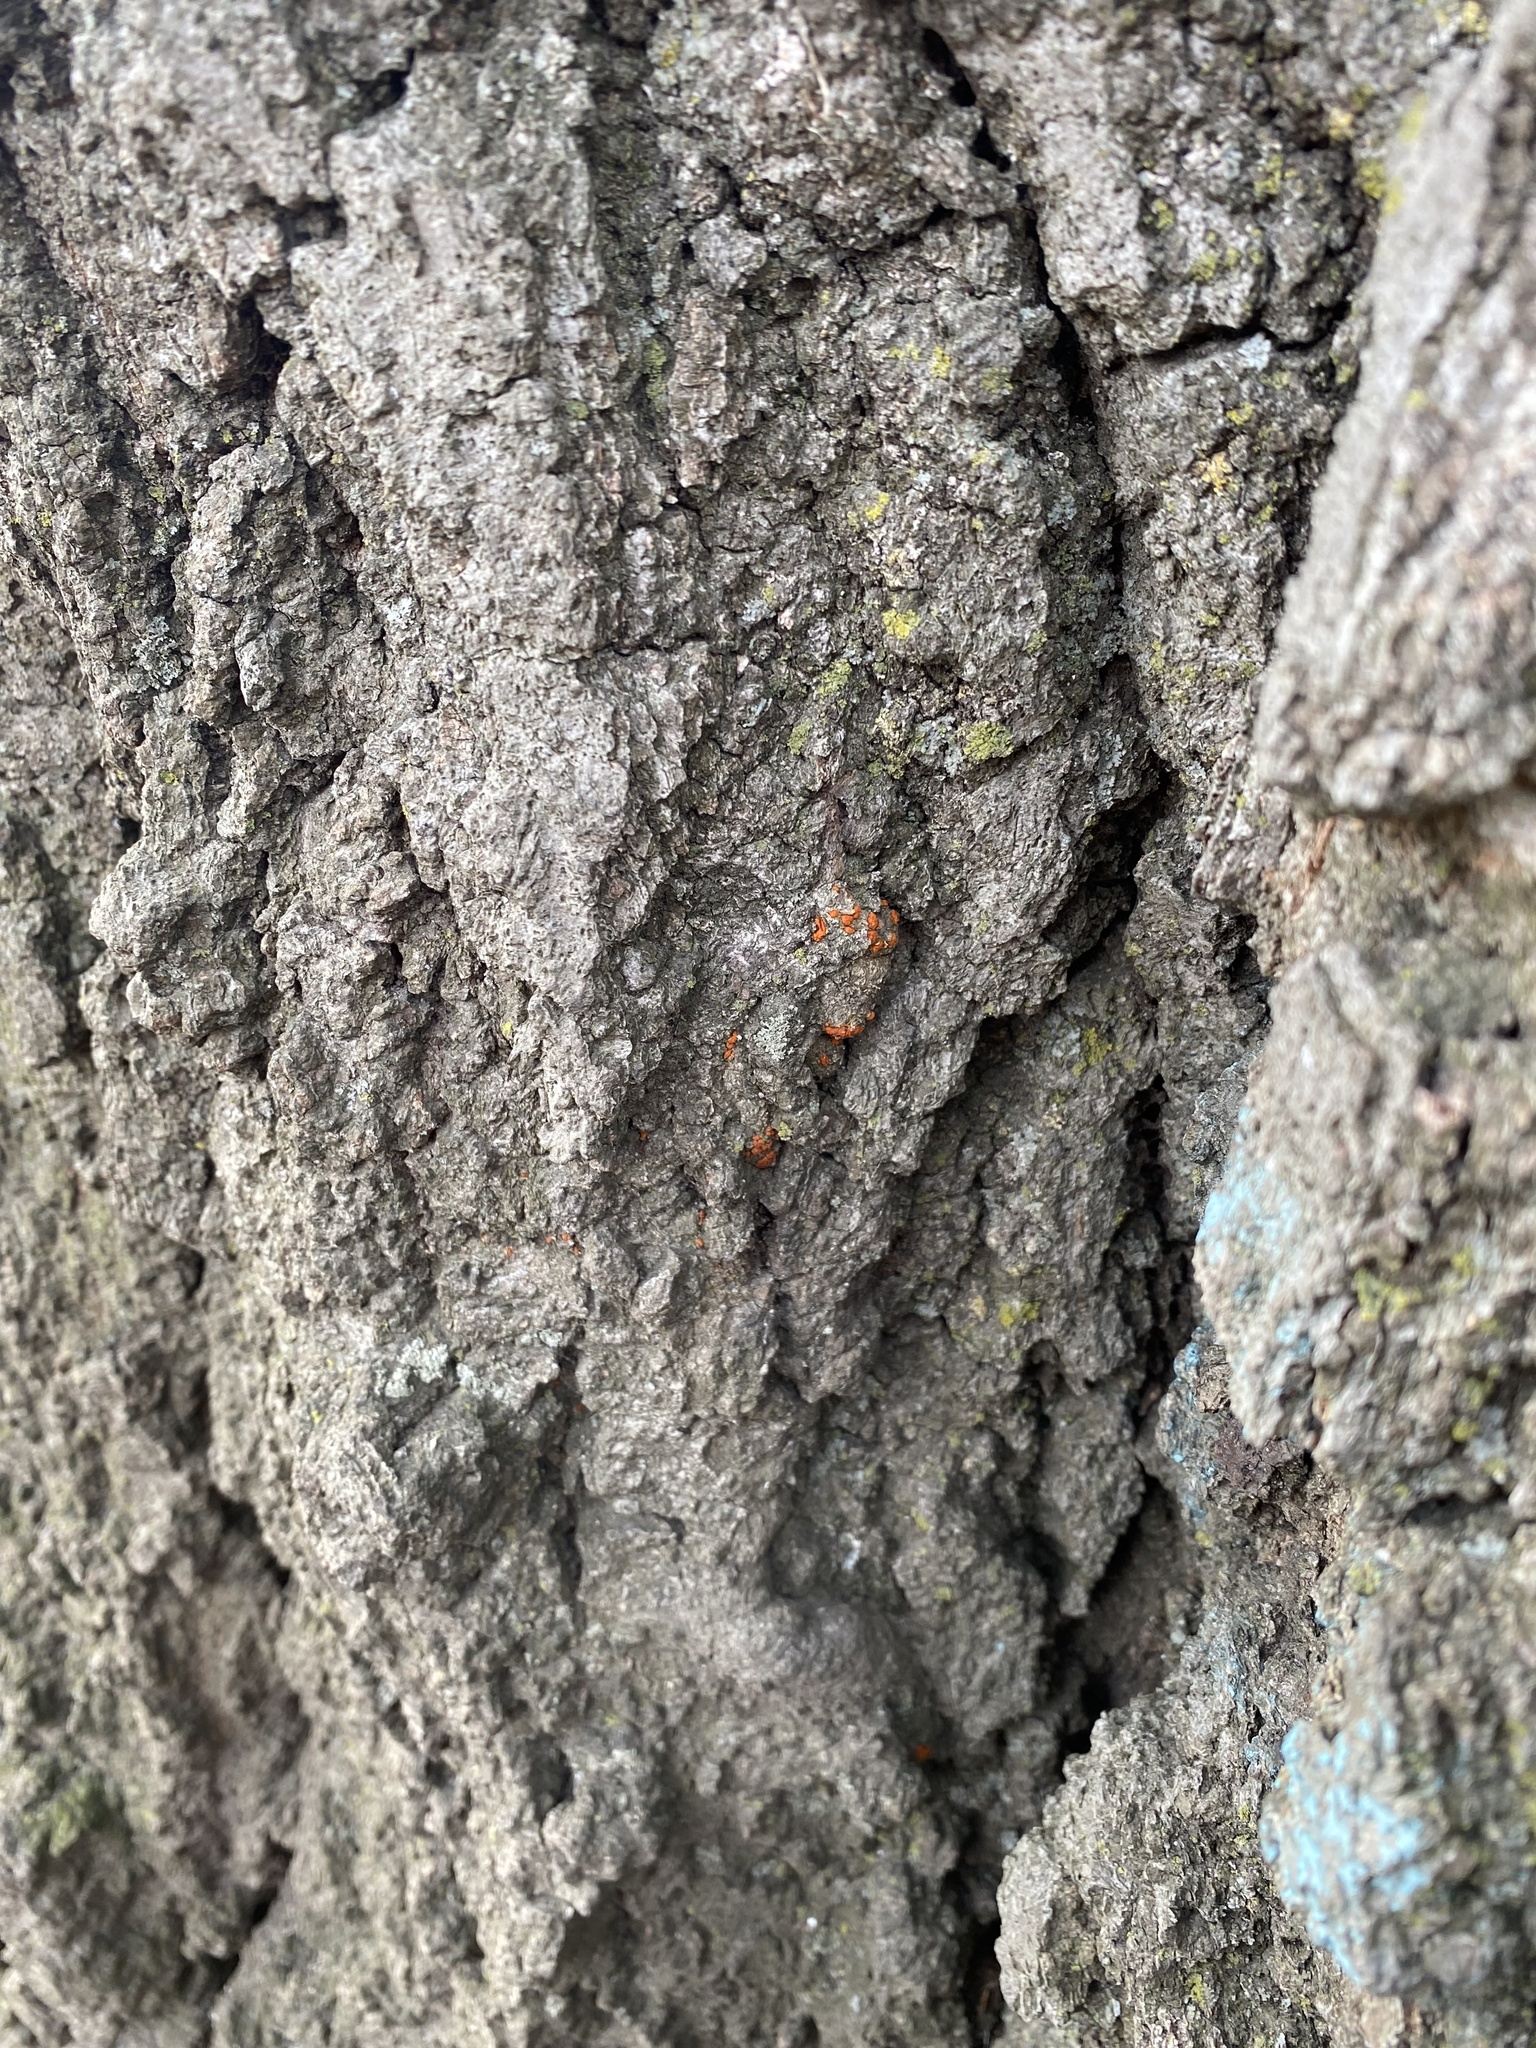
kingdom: Fungi
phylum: Ascomycota
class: Sordariomycetes
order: Diaporthales
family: Cryphonectriaceae
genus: Amphilogia
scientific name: Amphilogia gyrosa
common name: Orange hobnail canker
